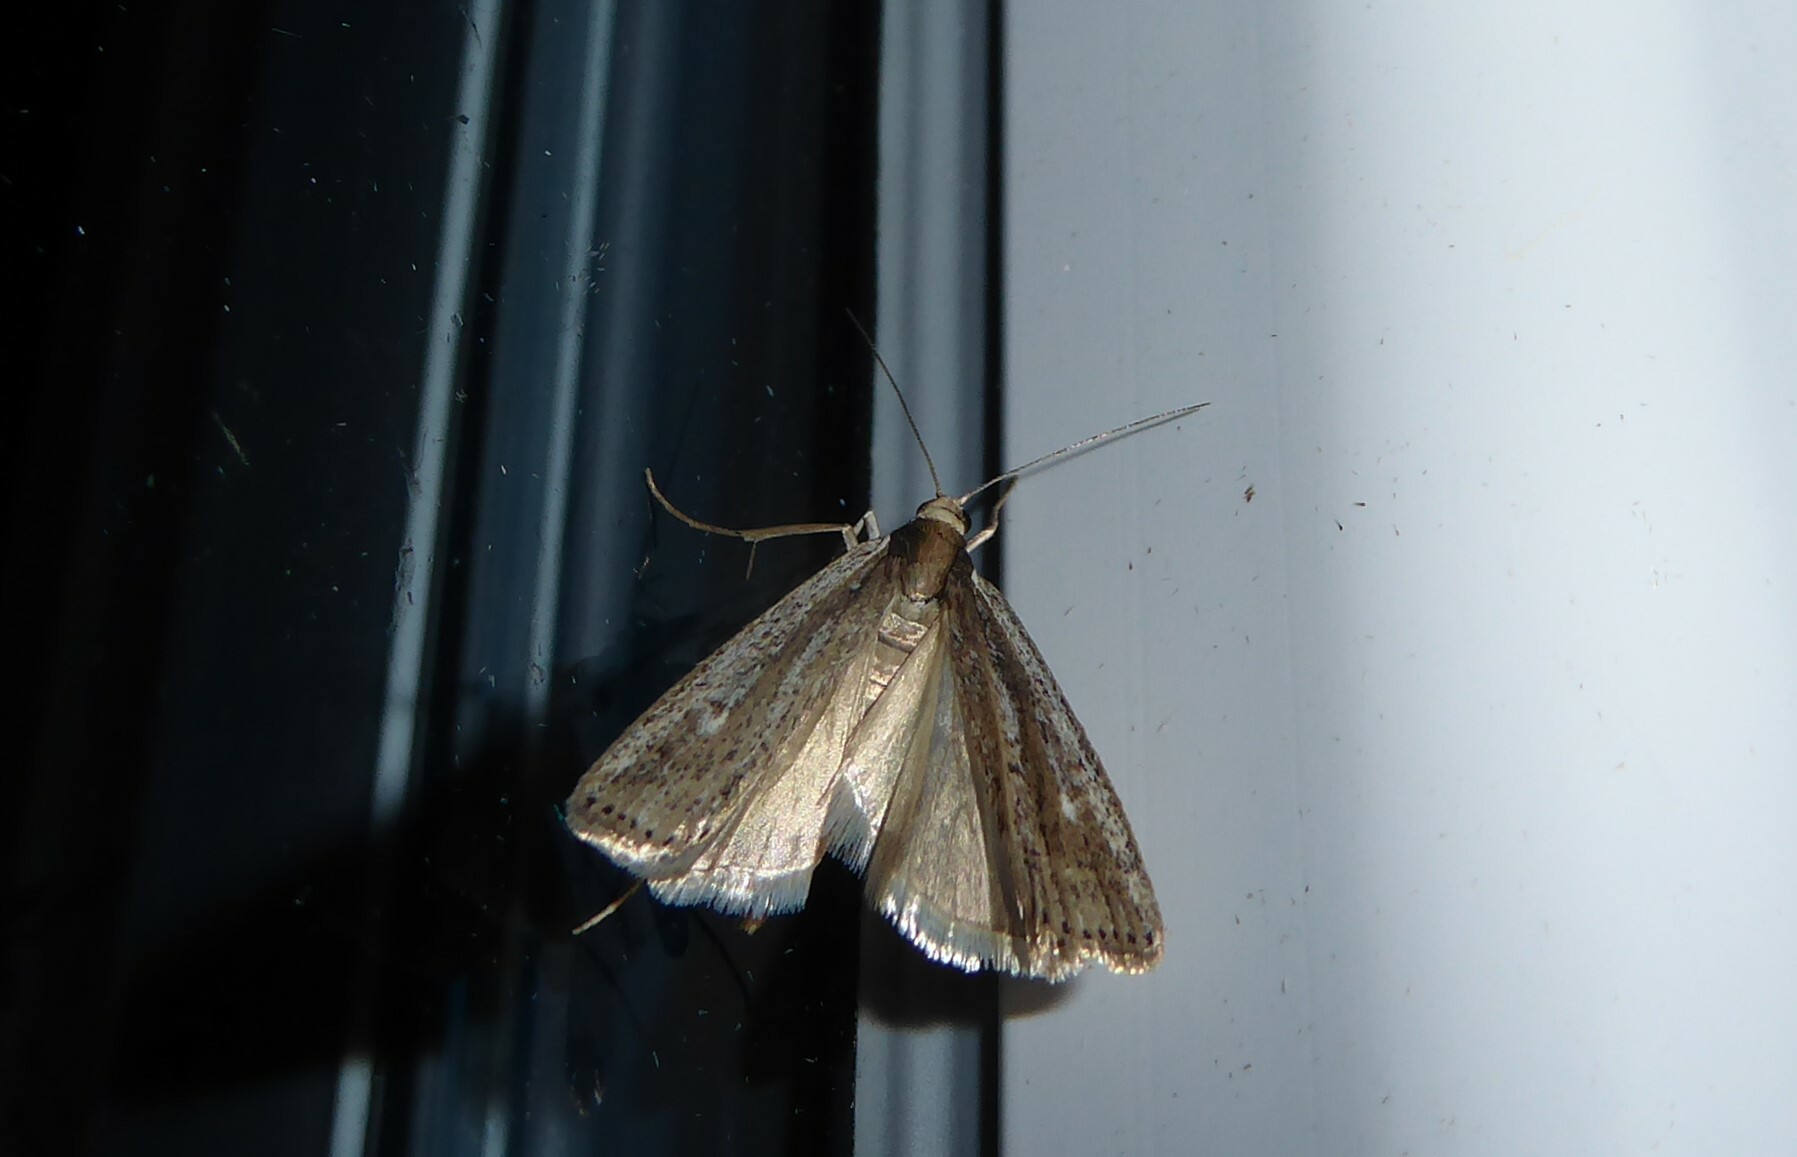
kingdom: Animalia
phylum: Arthropoda
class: Insecta
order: Lepidoptera
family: Crambidae
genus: Eudonia
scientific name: Eudonia sabulosella
